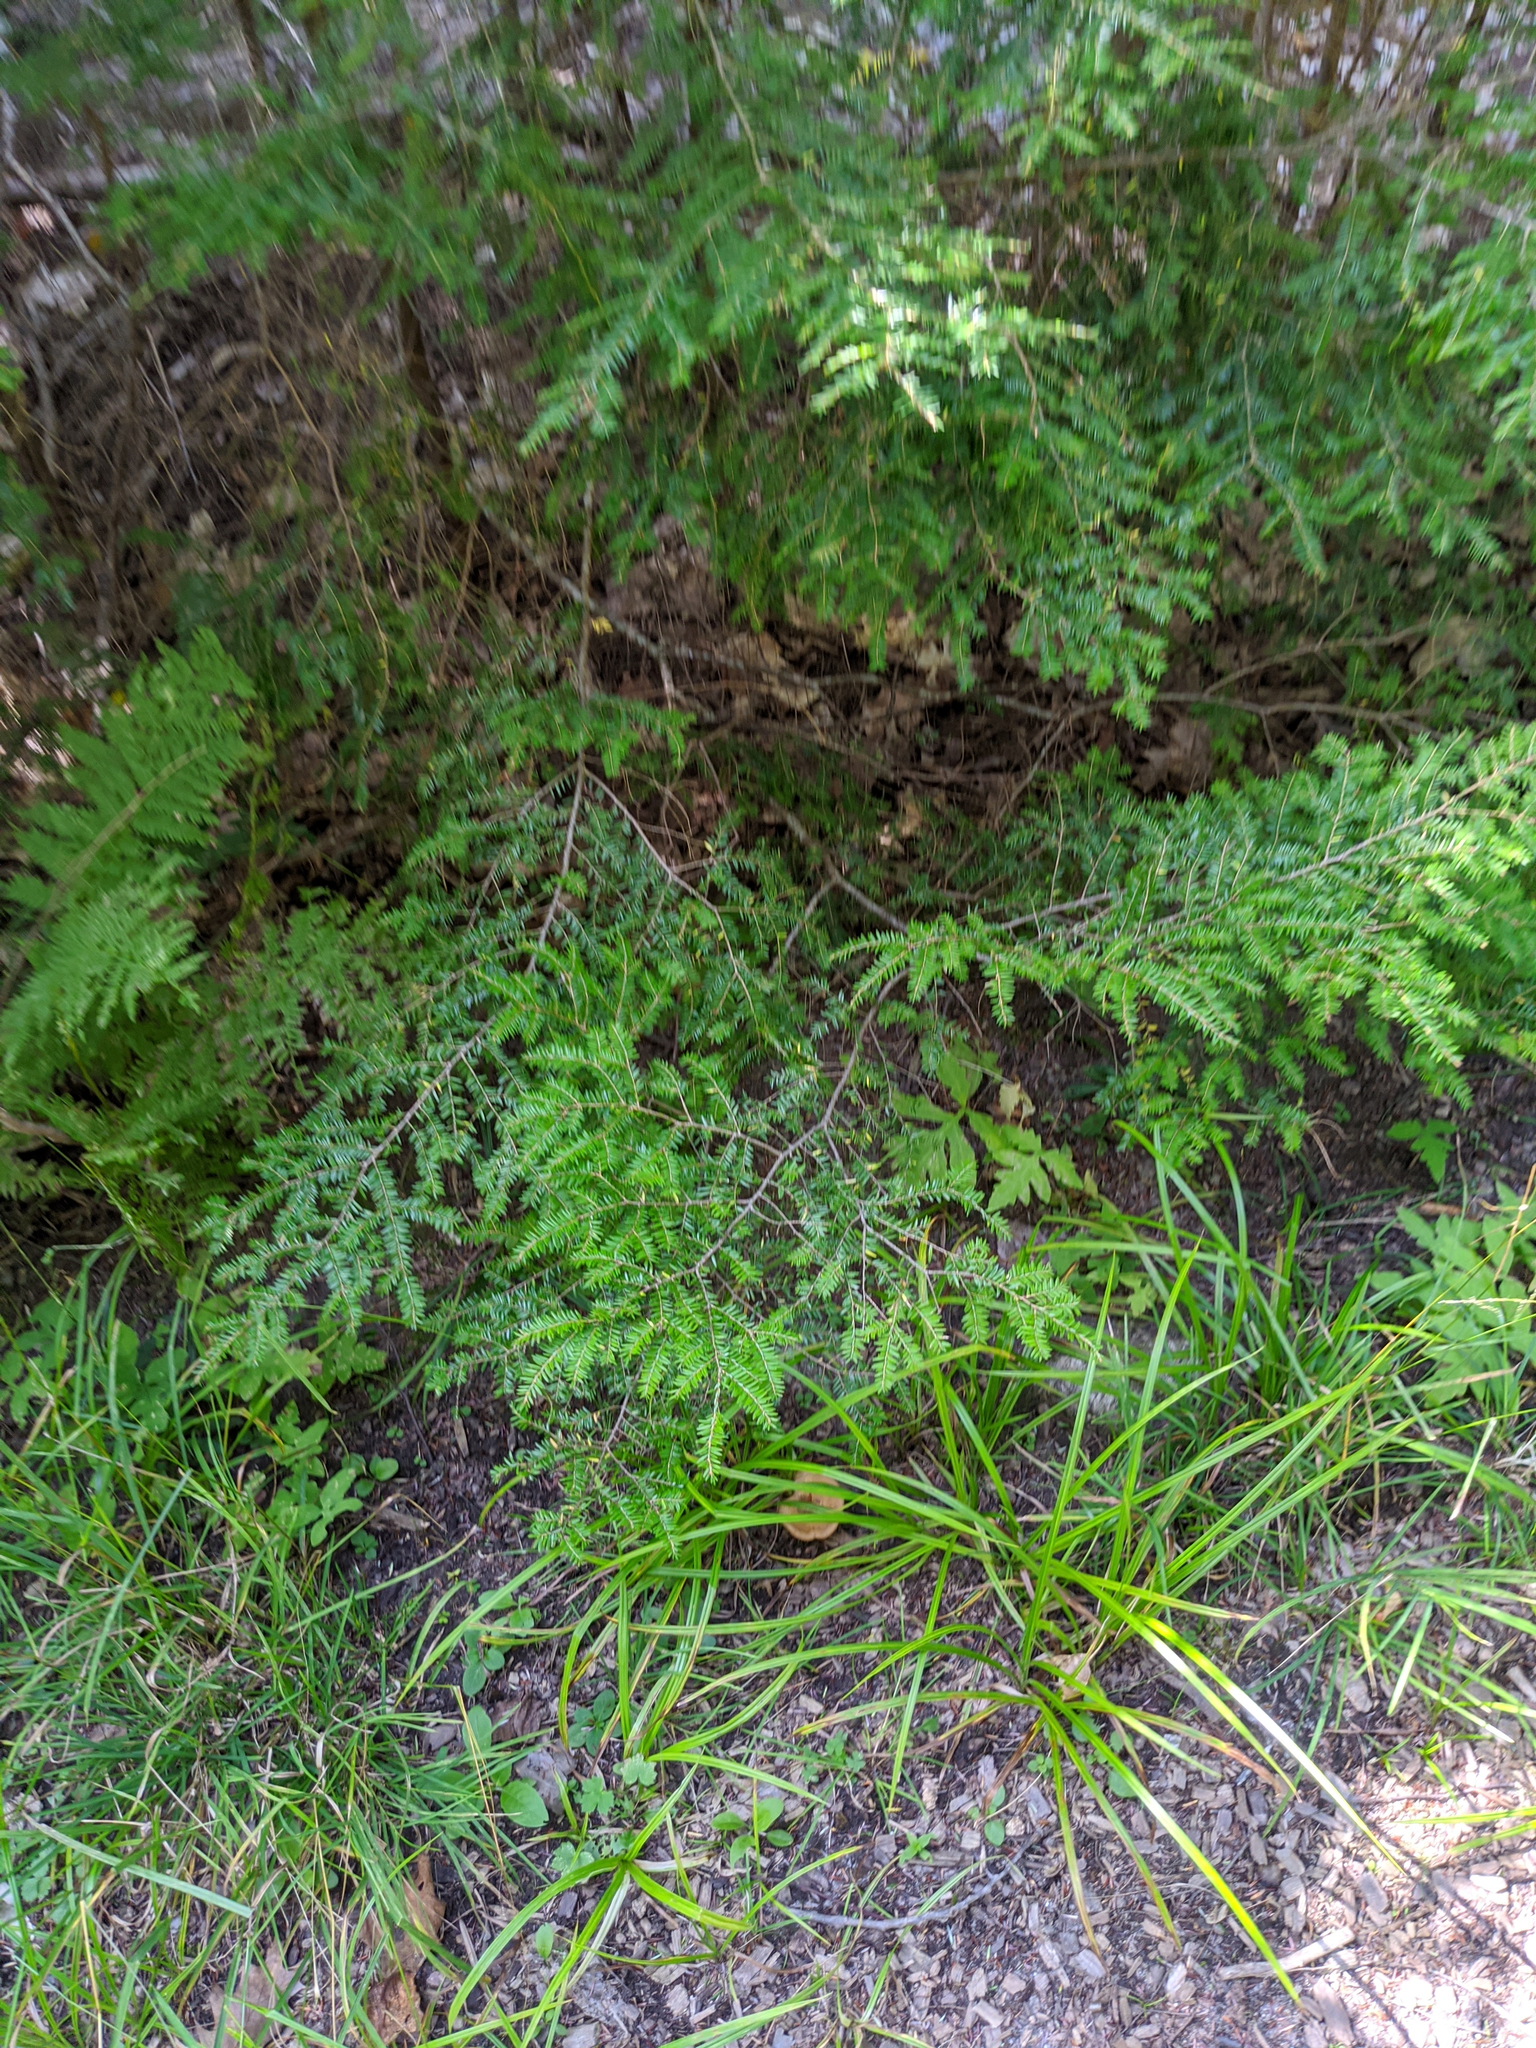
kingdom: Plantae
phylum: Tracheophyta
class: Pinopsida
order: Pinales
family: Pinaceae
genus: Tsuga
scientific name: Tsuga canadensis
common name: Eastern hemlock
